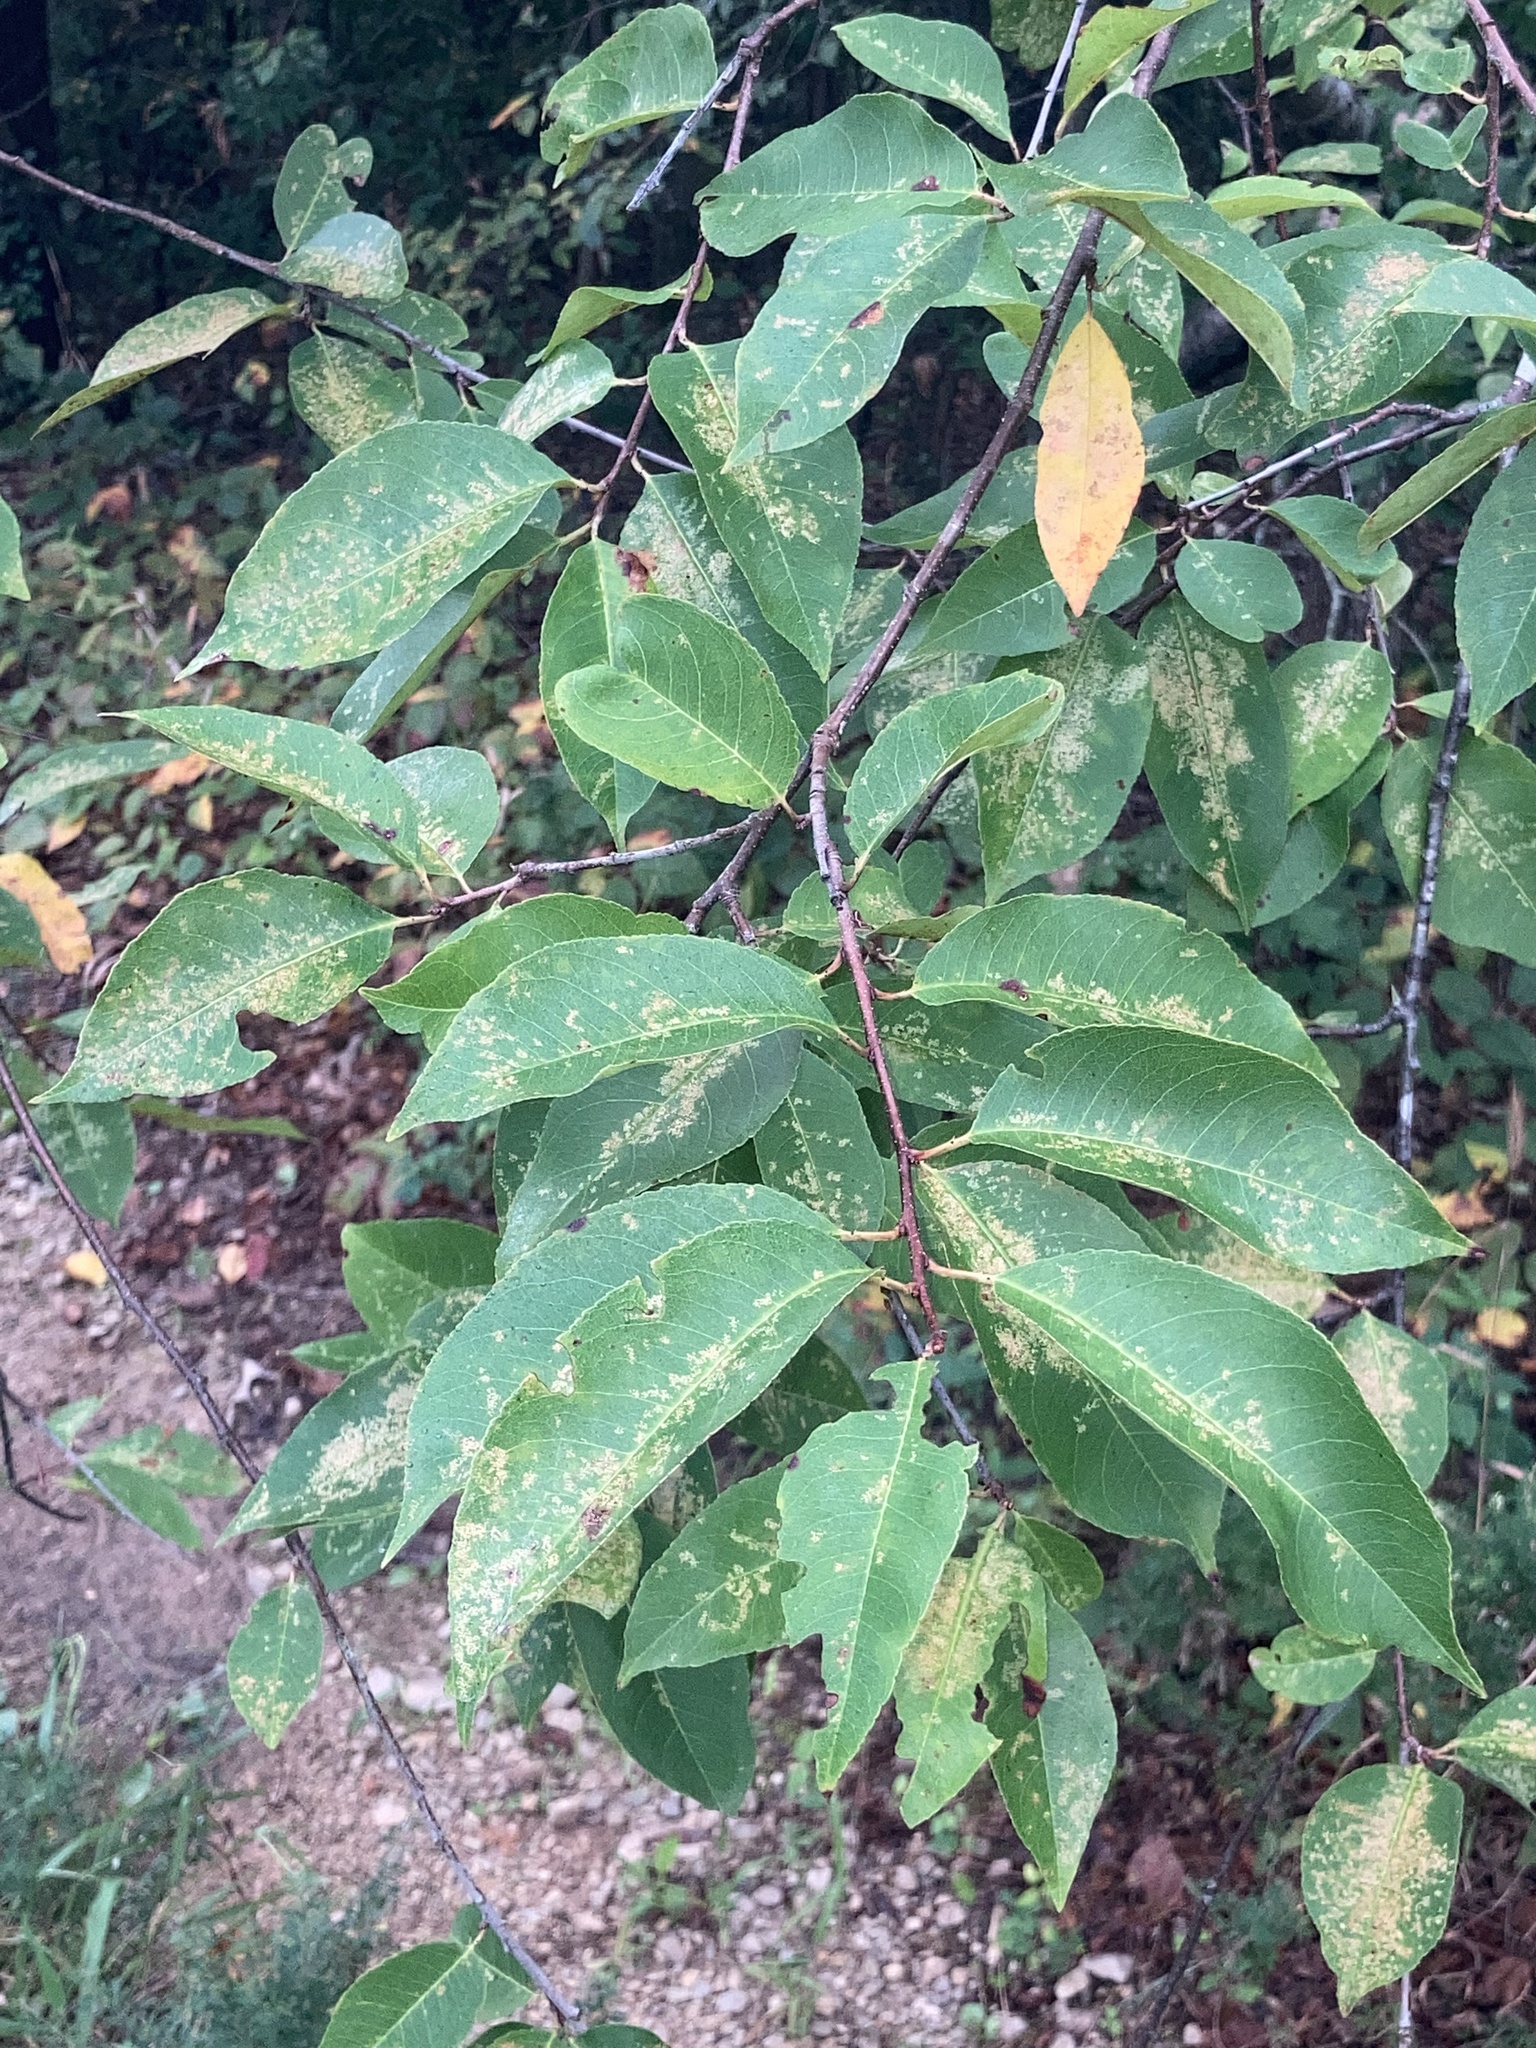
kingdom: Plantae
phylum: Tracheophyta
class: Magnoliopsida
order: Rosales
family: Rosaceae
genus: Prunus
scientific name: Prunus serotina
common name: Black cherry
